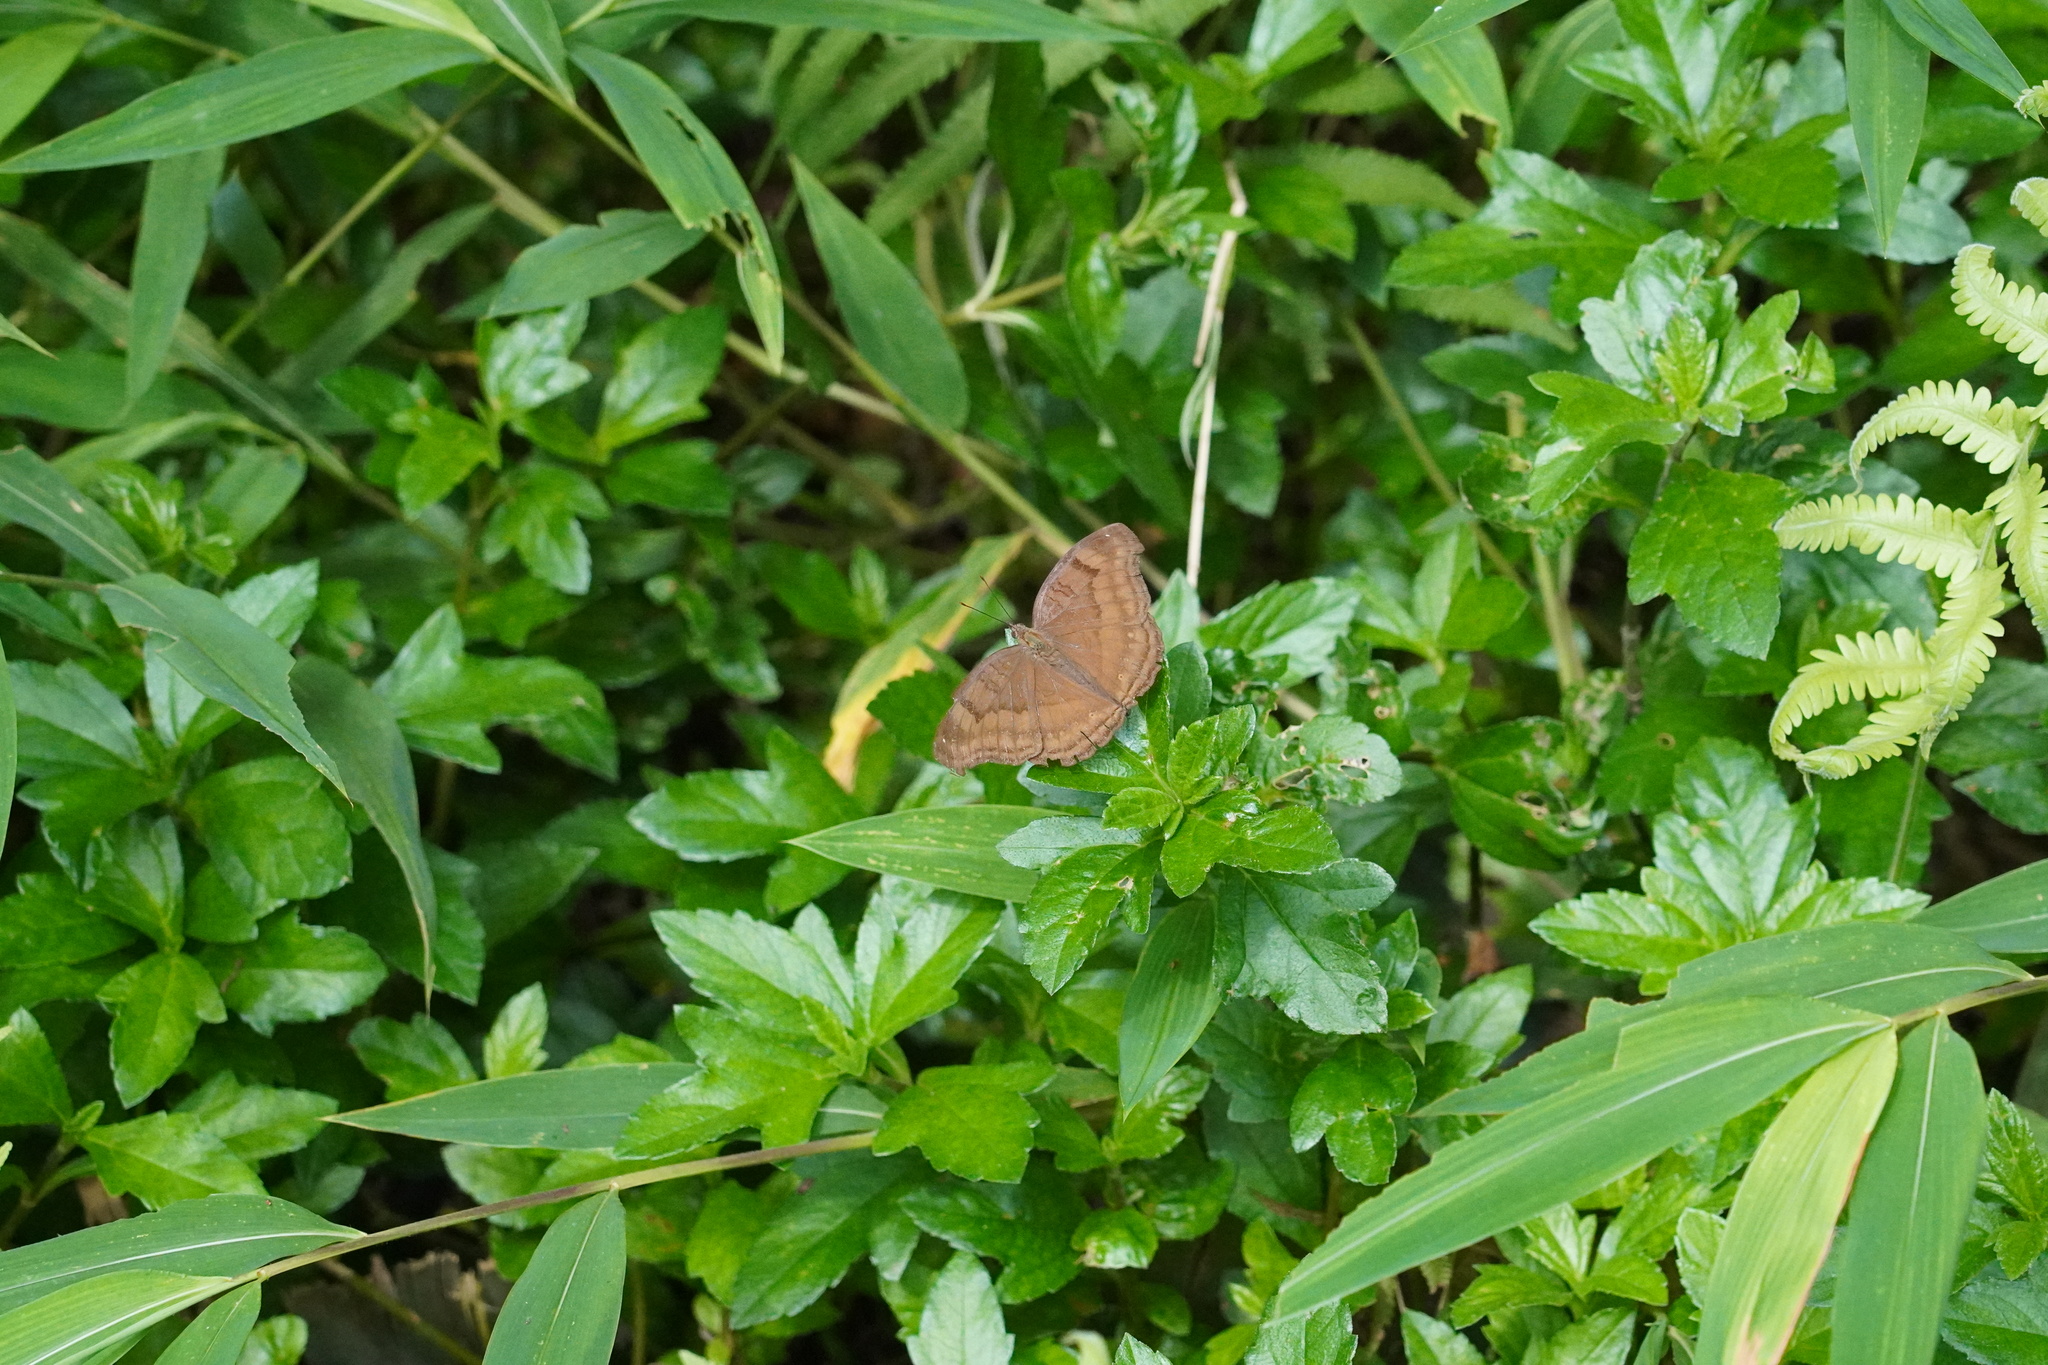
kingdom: Animalia
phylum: Arthropoda
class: Insecta
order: Lepidoptera
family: Nymphalidae
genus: Junonia
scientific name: Junonia iphita
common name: Chocolate pansy
